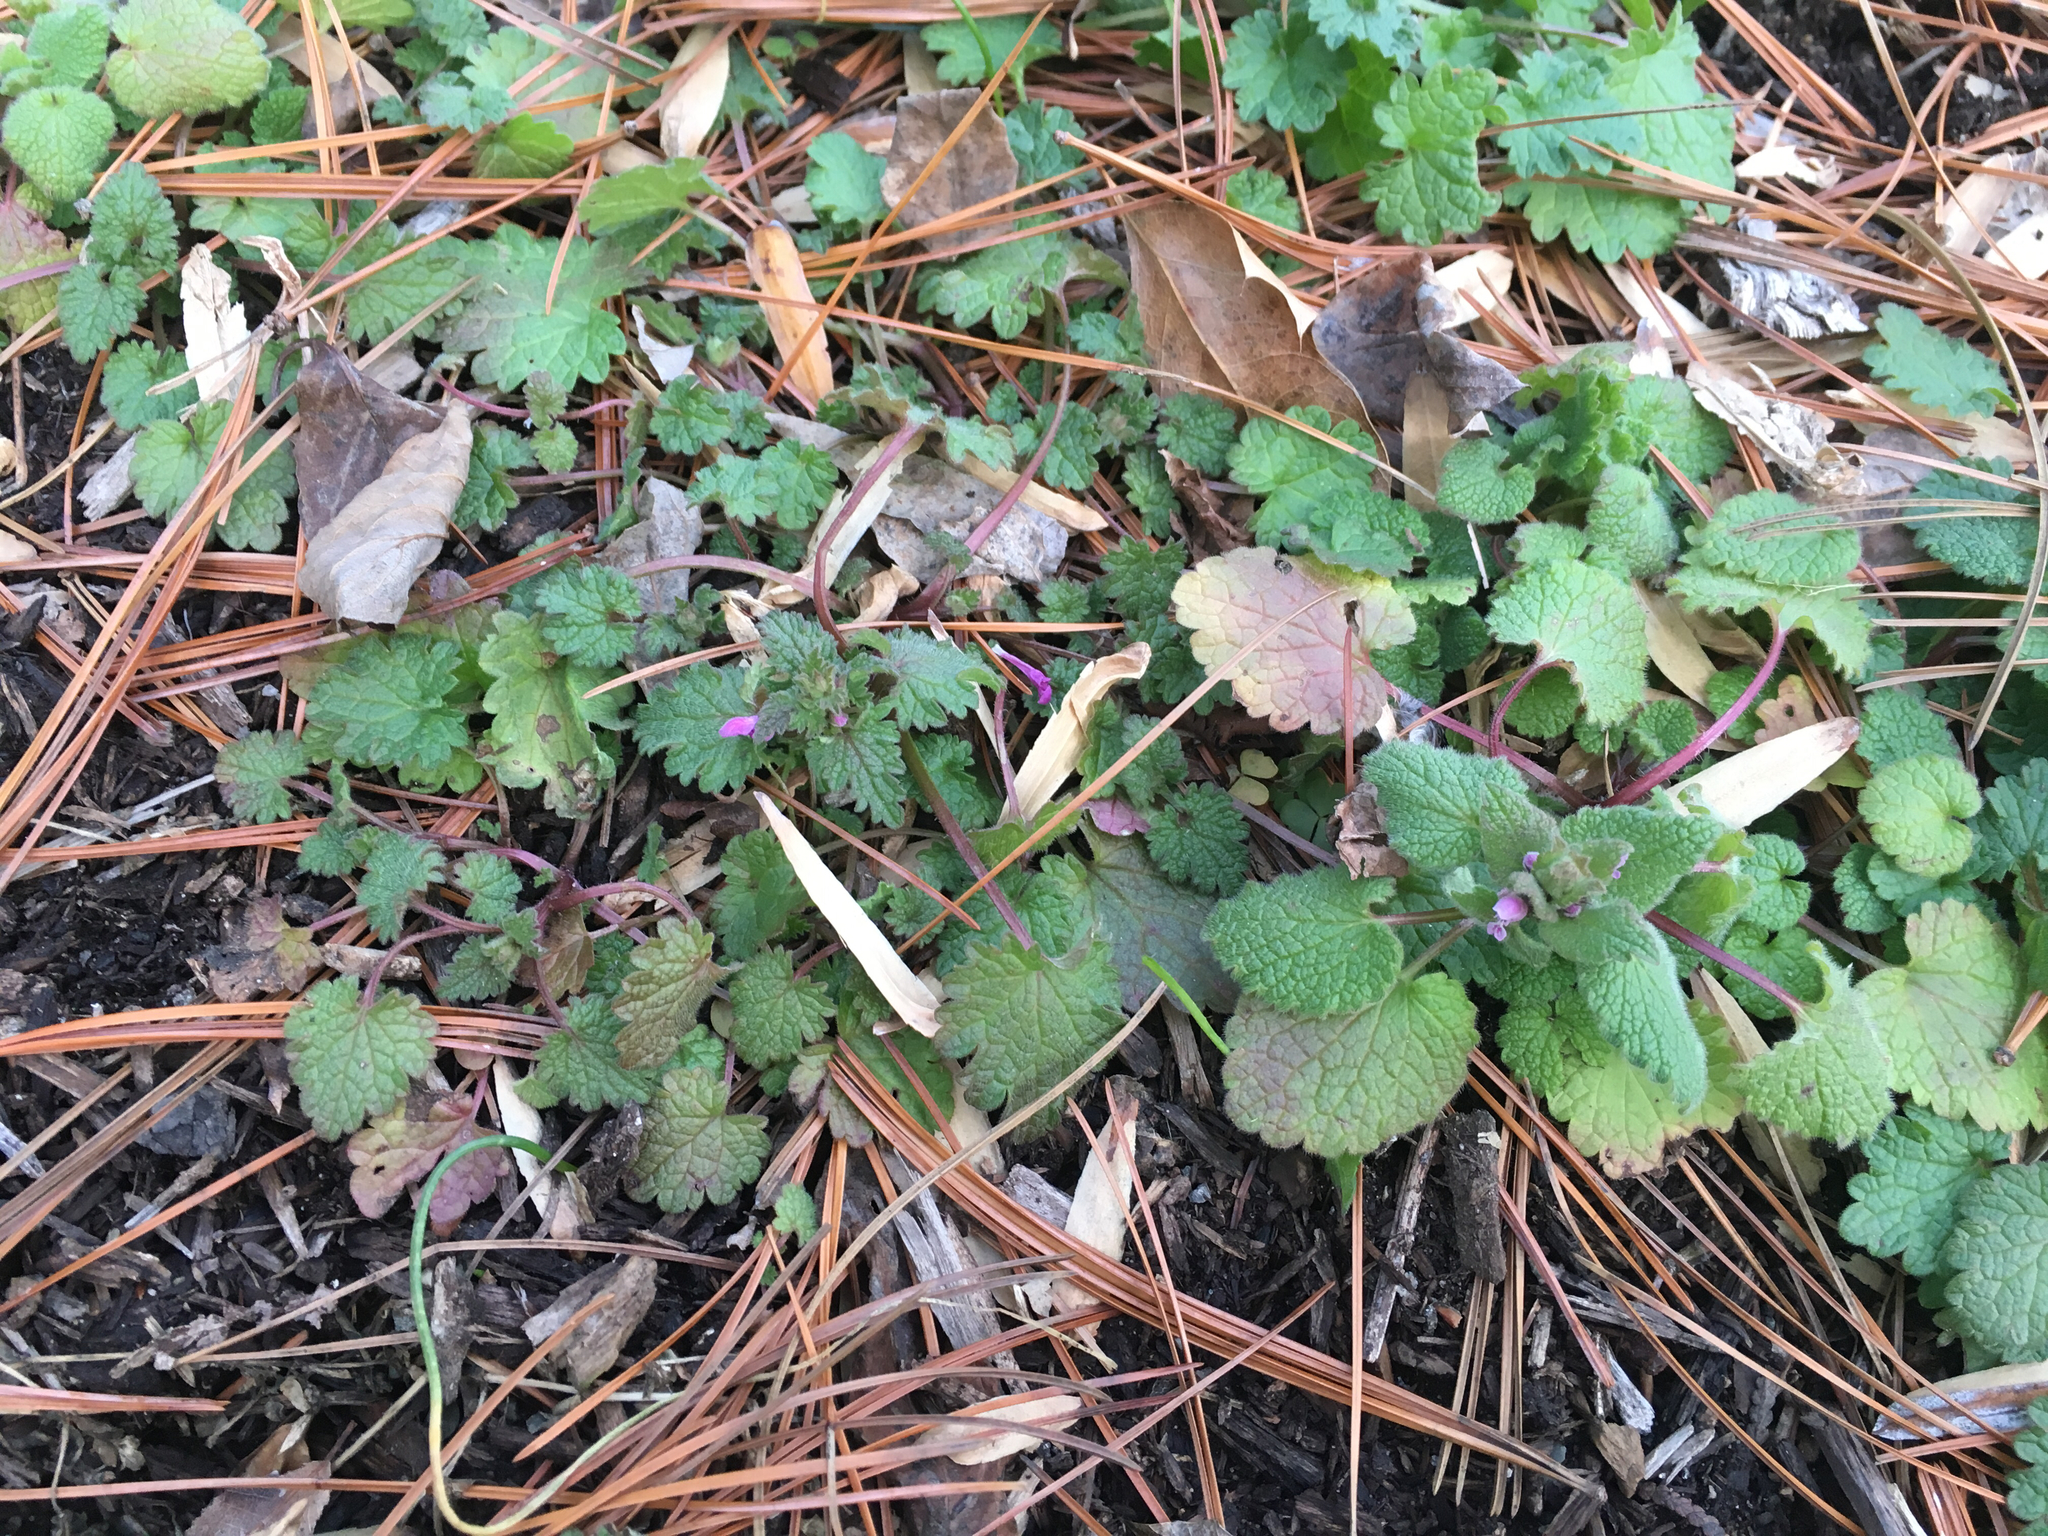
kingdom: Plantae
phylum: Tracheophyta
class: Magnoliopsida
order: Lamiales
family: Lamiaceae
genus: Lamium
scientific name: Lamium hybridum
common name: Cut-leaved dead-nettle
